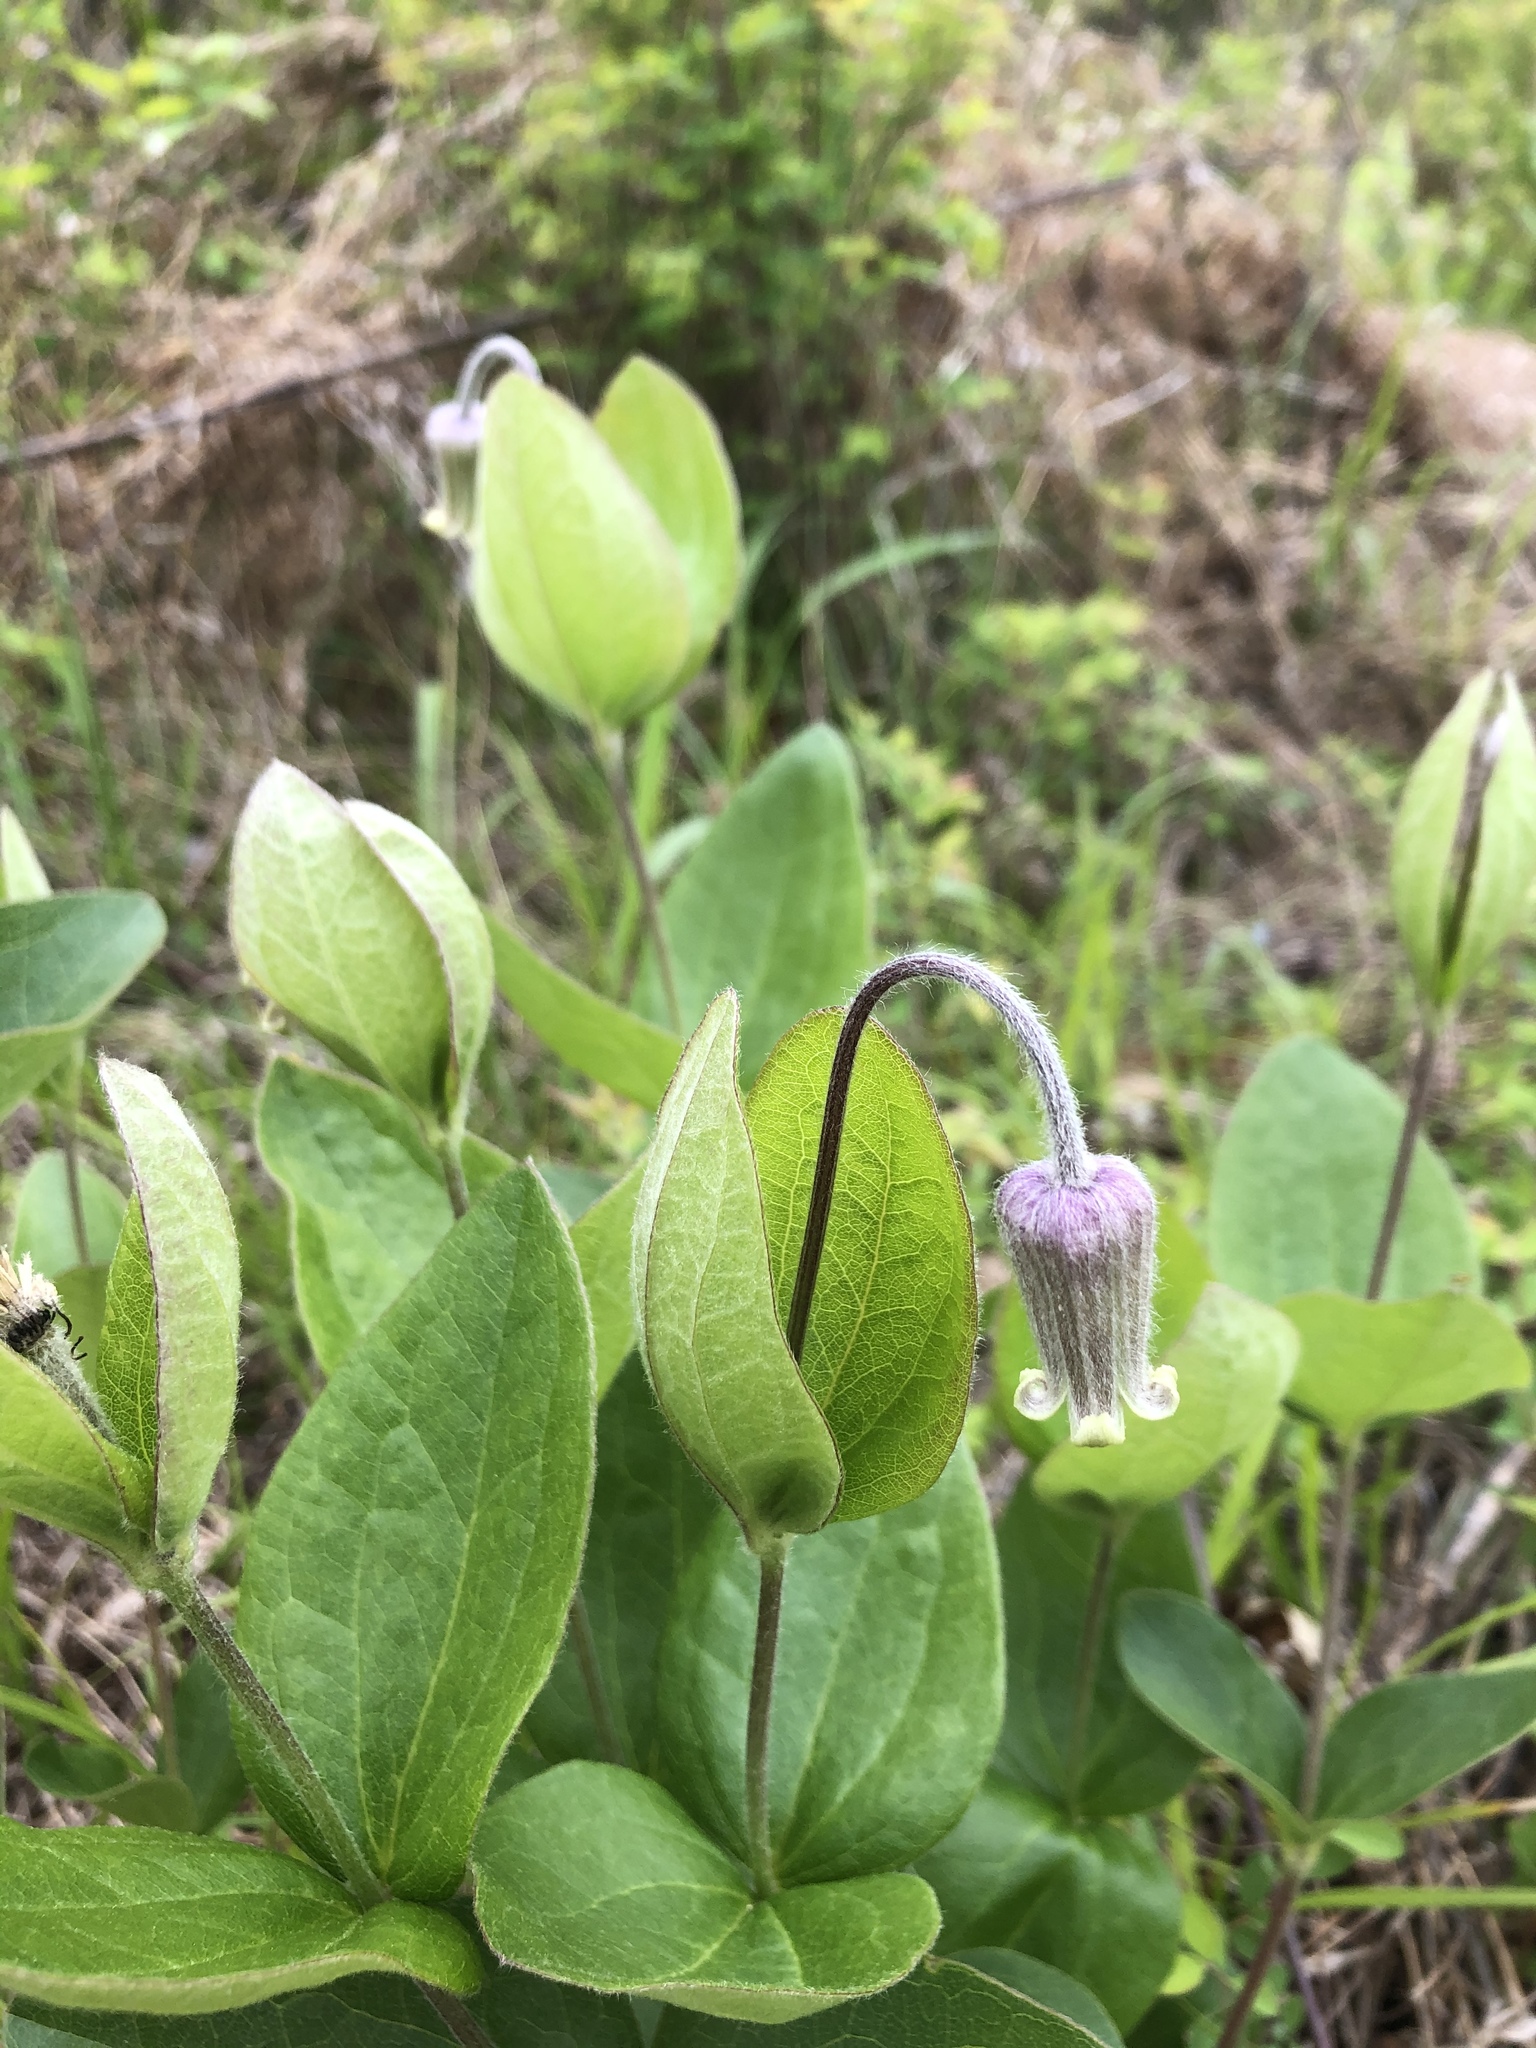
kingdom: Plantae
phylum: Tracheophyta
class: Magnoliopsida
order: Ranunculales
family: Ranunculaceae
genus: Clematis
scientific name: Clematis ochroleuca
